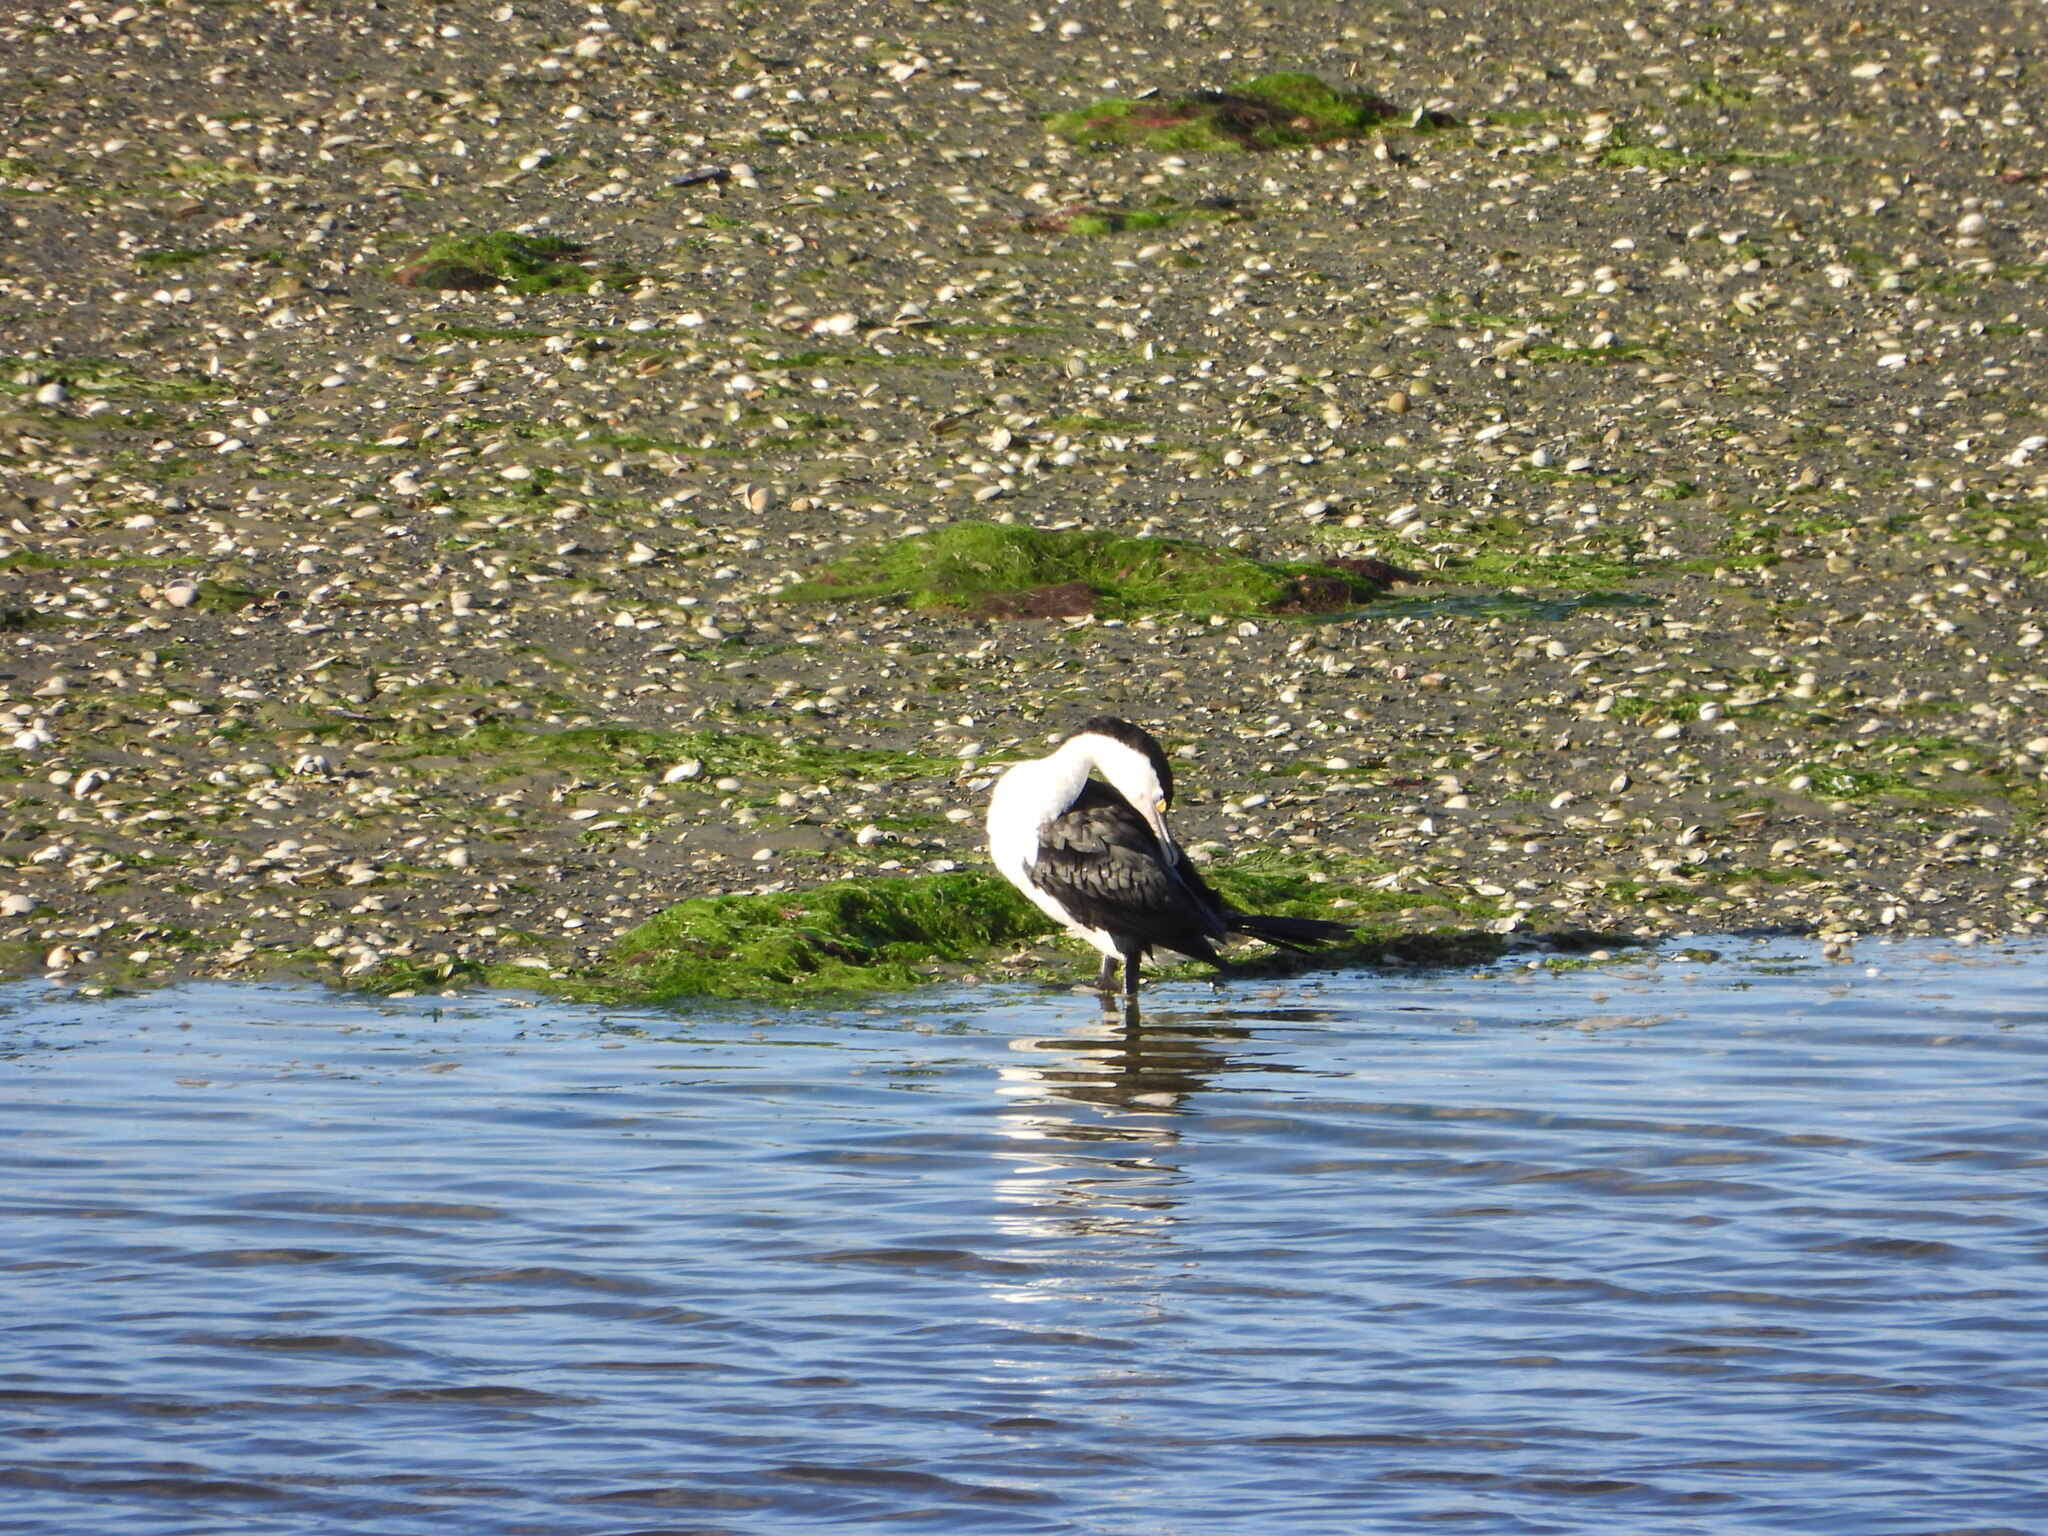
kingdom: Animalia
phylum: Chordata
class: Aves
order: Suliformes
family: Phalacrocoracidae
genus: Phalacrocorax
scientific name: Phalacrocorax varius
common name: Pied cormorant
